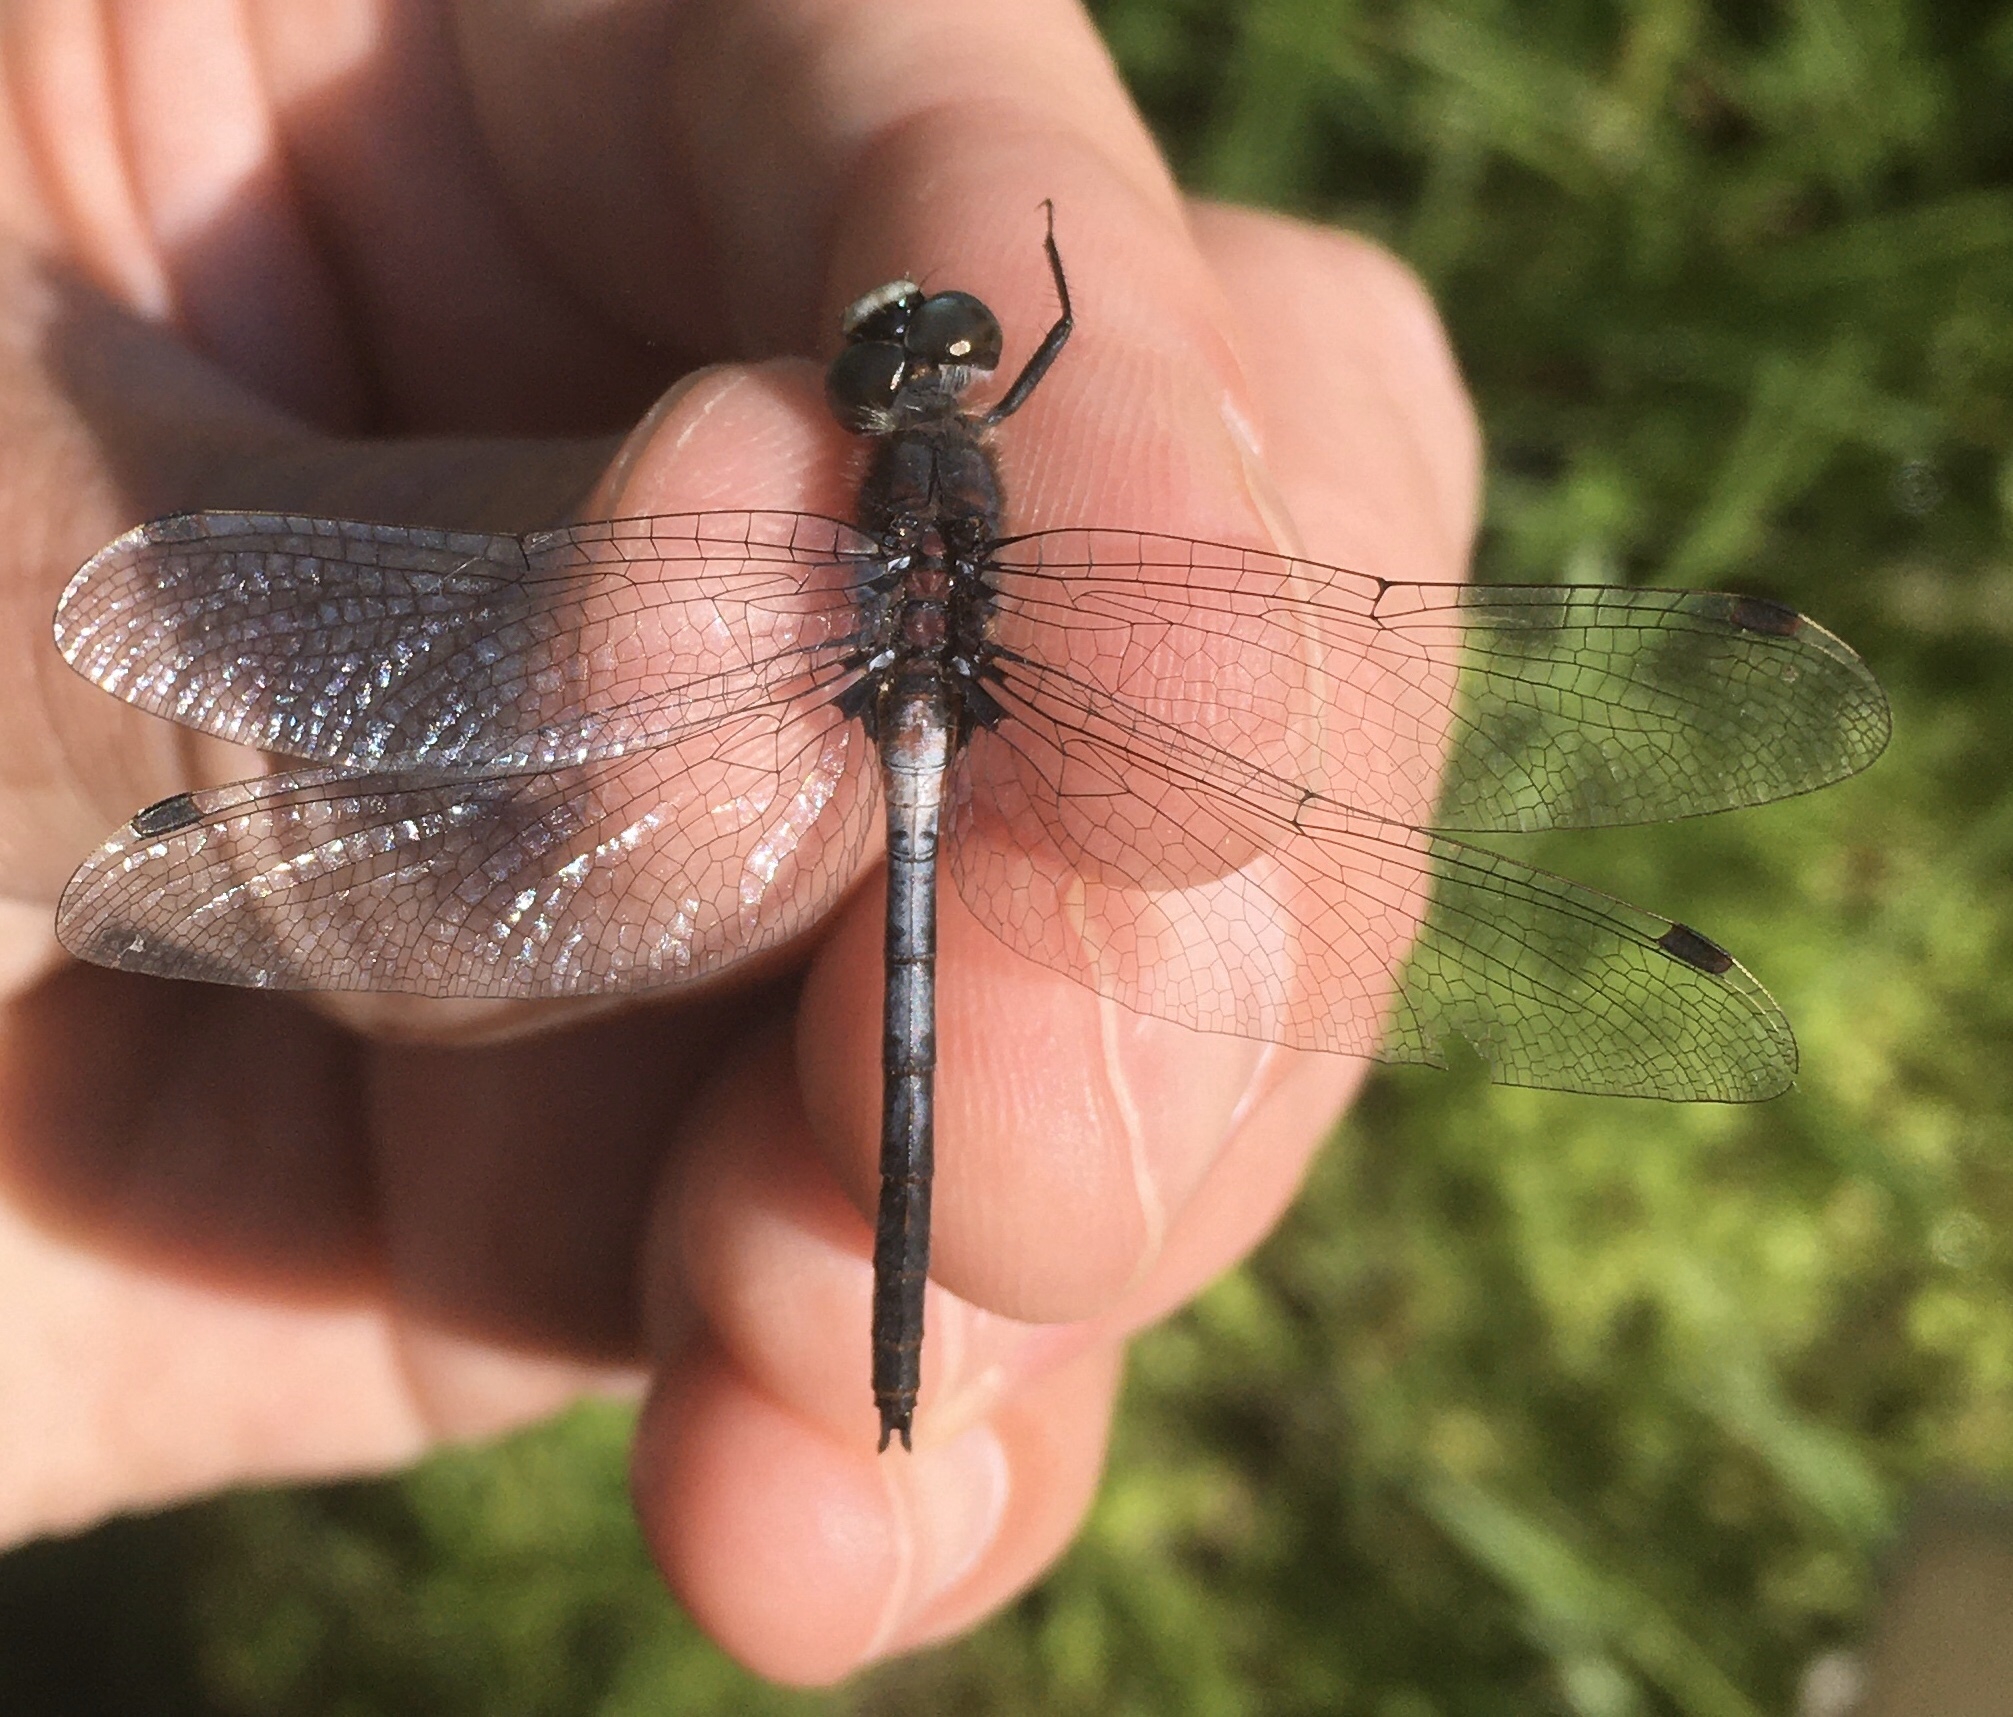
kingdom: Animalia
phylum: Arthropoda
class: Insecta
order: Odonata
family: Libellulidae
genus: Leucorrhinia
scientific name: Leucorrhinia proxima
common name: Belted whiteface
